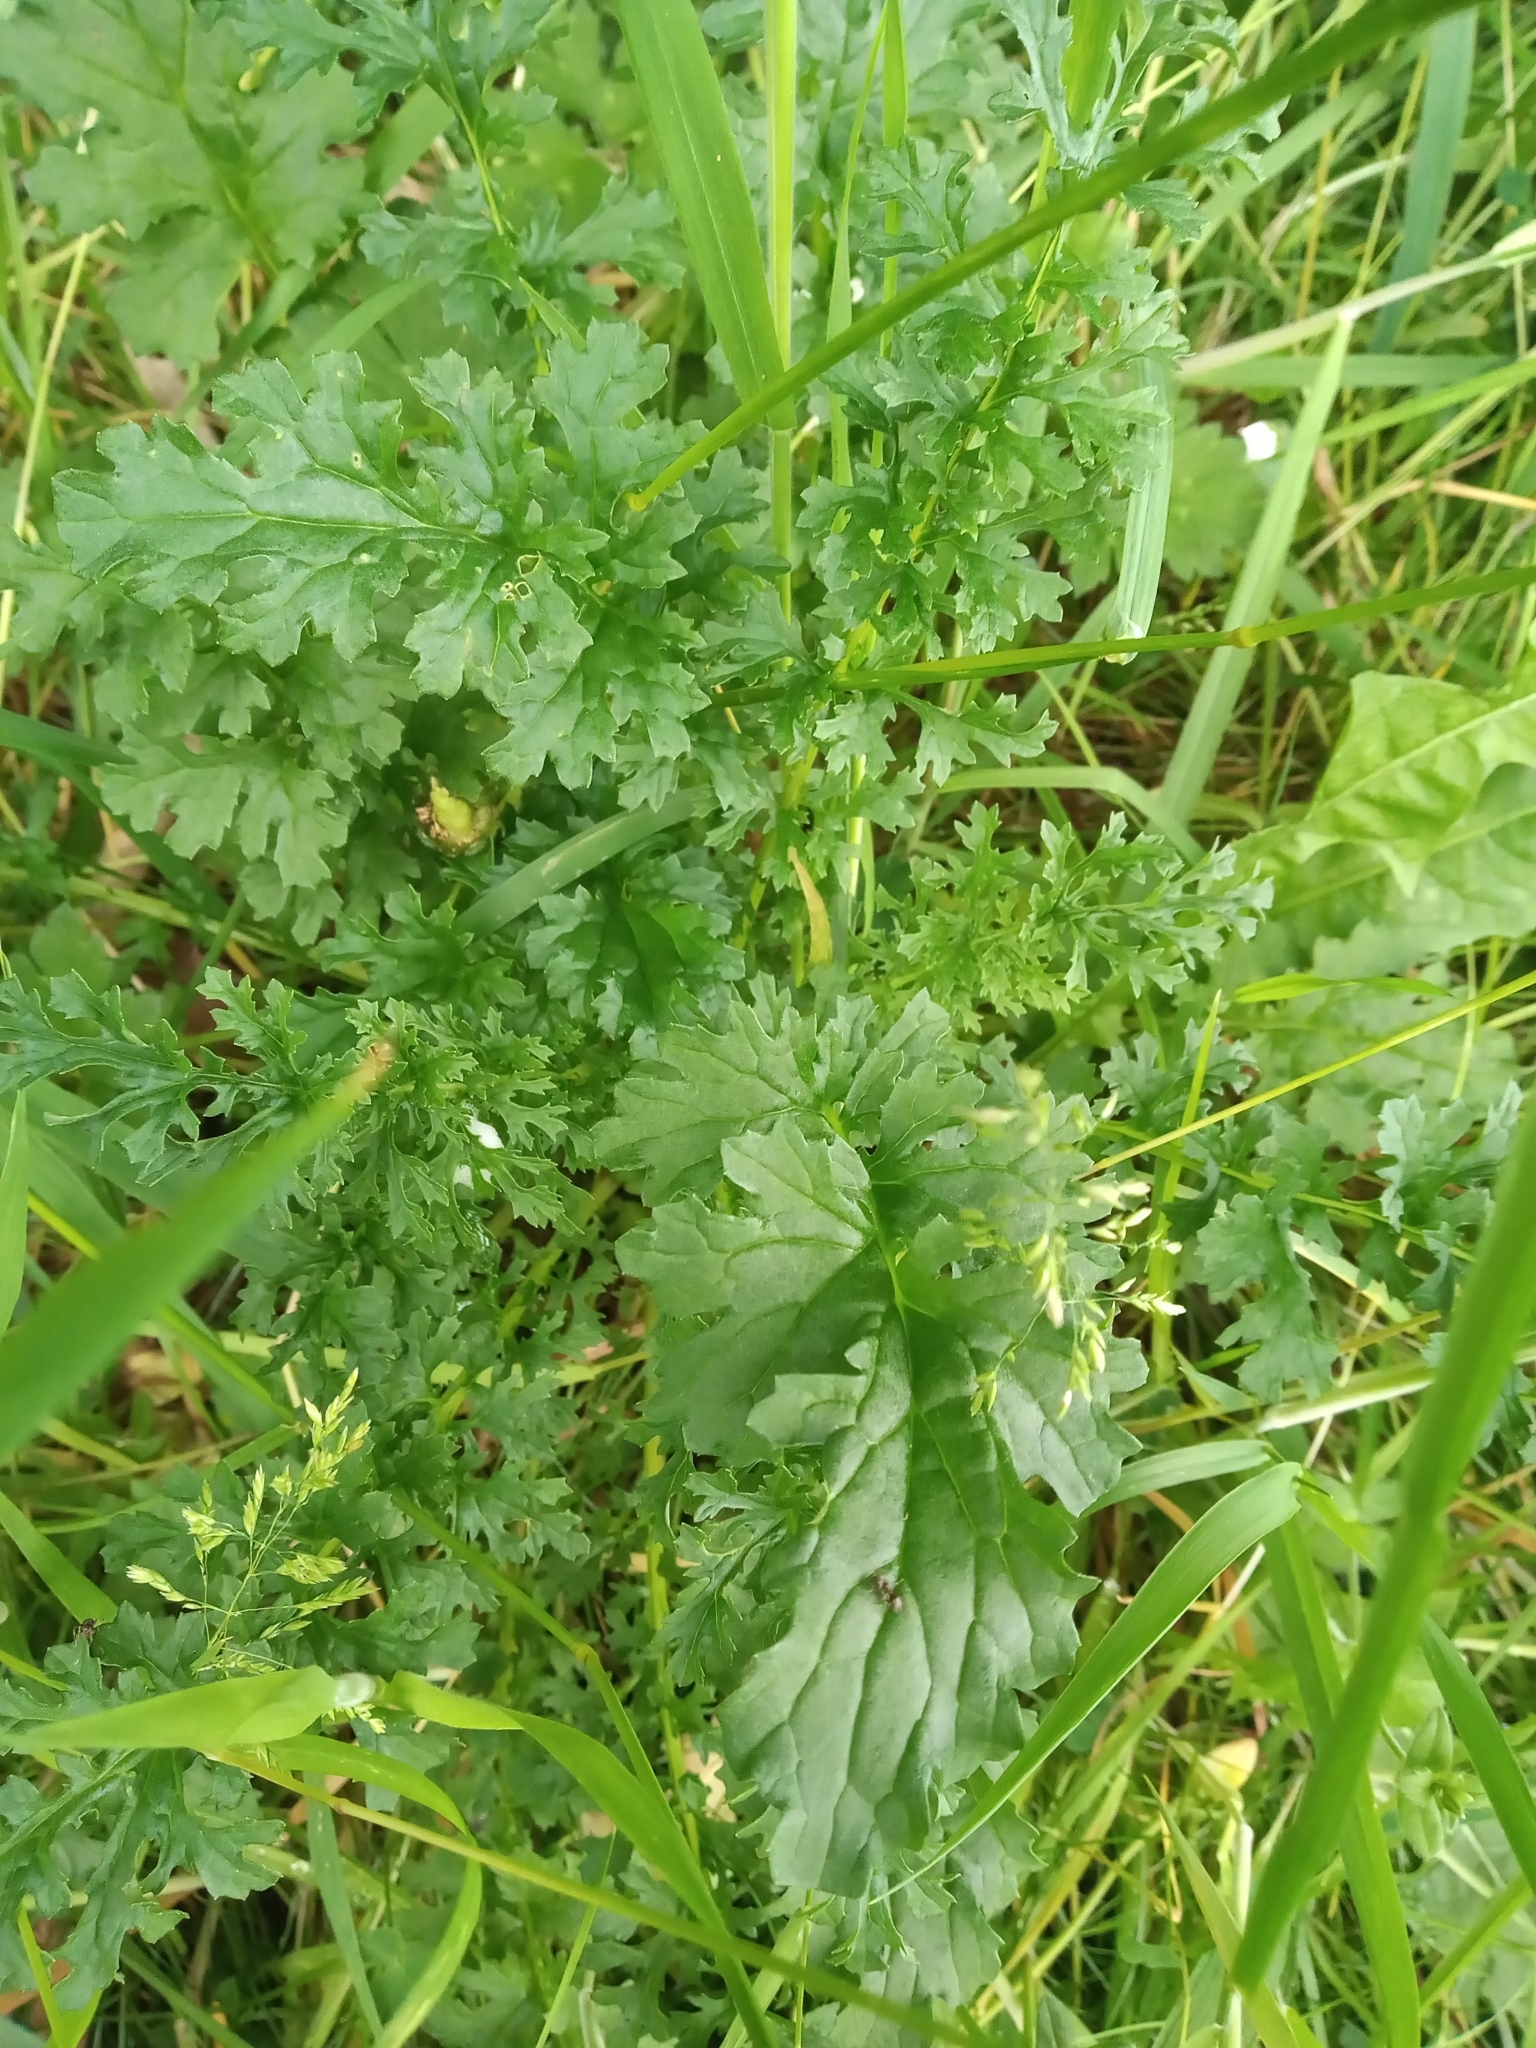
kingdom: Plantae
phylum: Tracheophyta
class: Magnoliopsida
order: Asterales
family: Asteraceae
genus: Jacobaea
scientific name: Jacobaea vulgaris
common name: Stinking willie
